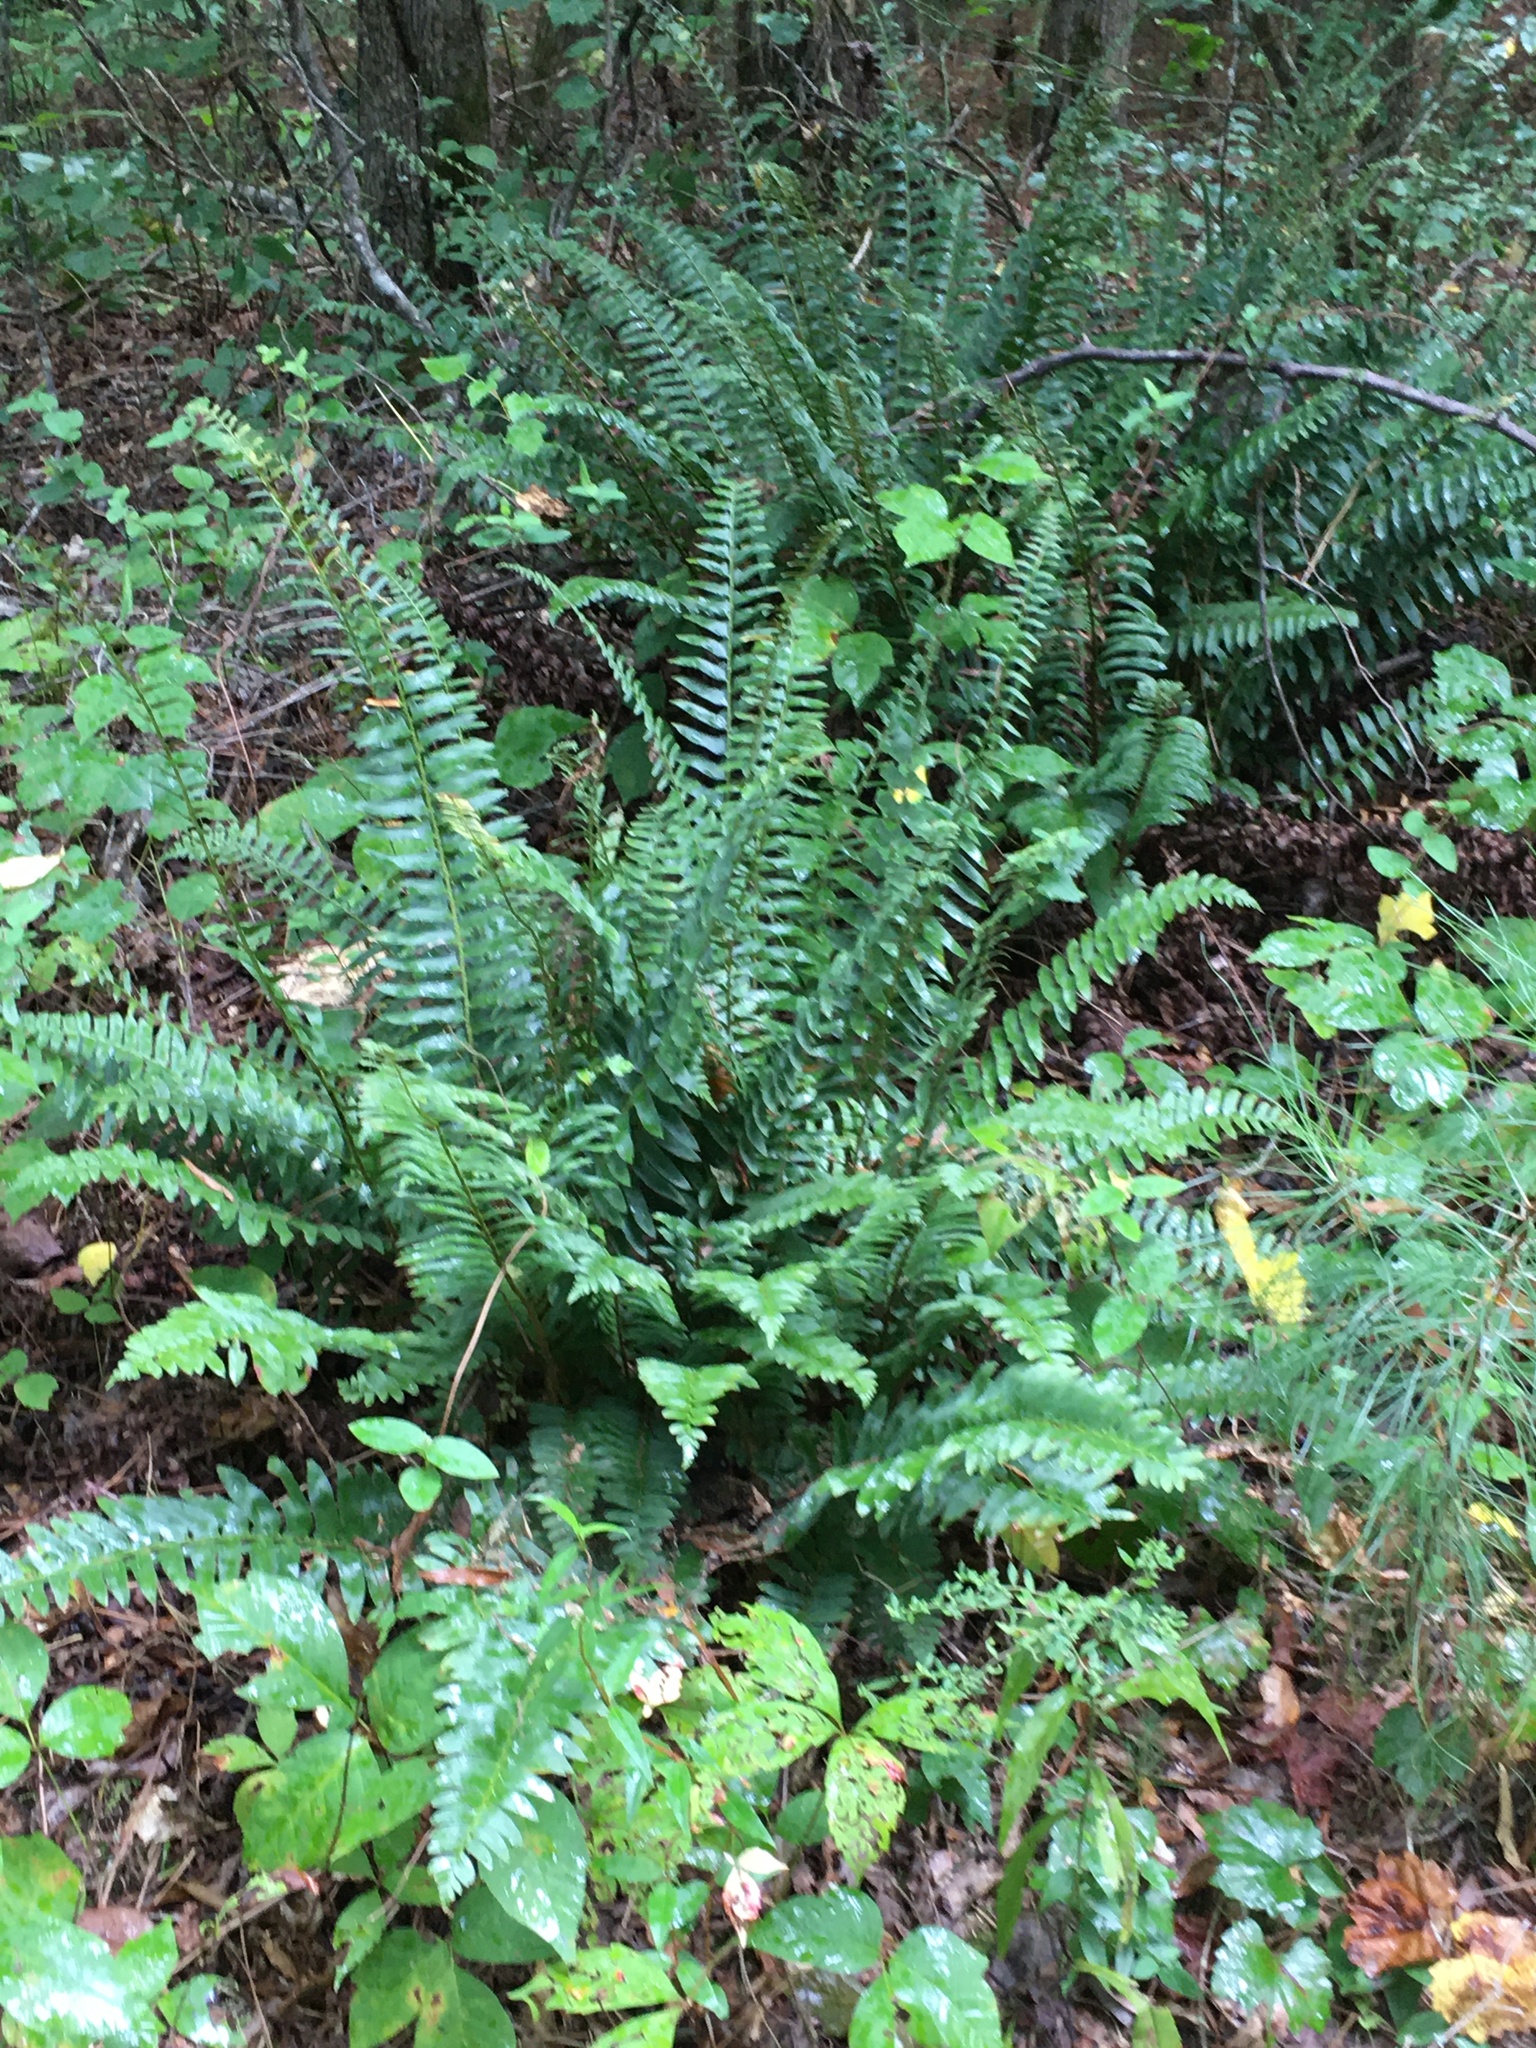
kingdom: Plantae
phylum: Tracheophyta
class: Polypodiopsida
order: Polypodiales
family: Dryopteridaceae
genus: Polystichum
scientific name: Polystichum acrostichoides
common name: Christmas fern
